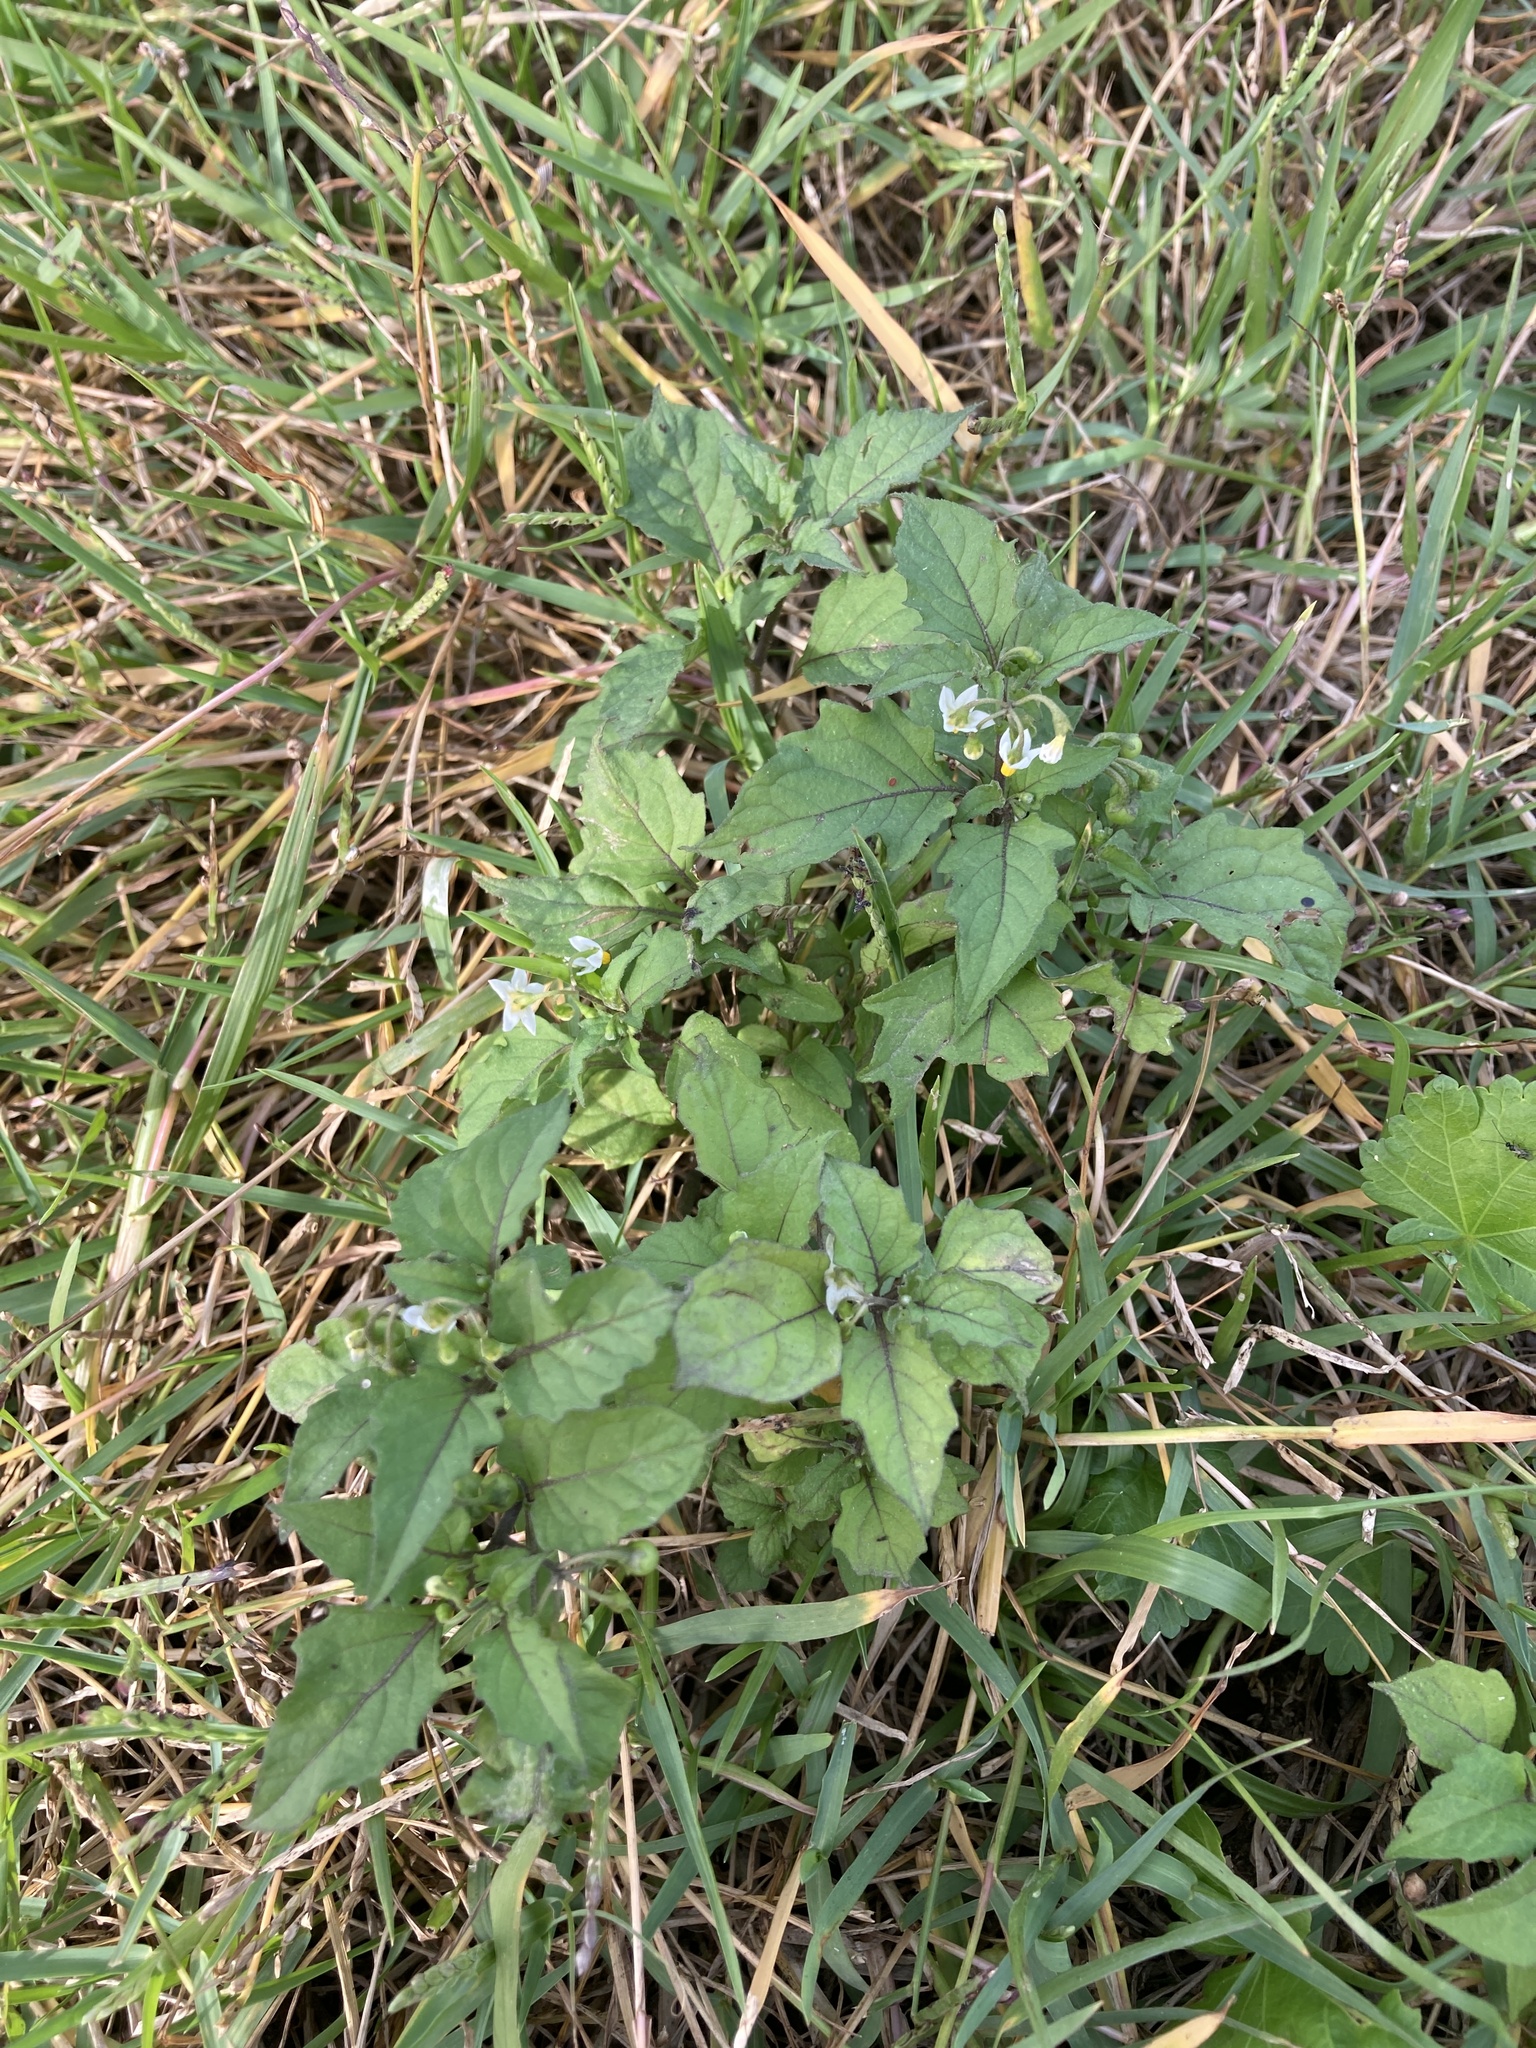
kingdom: Plantae
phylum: Tracheophyta
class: Magnoliopsida
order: Solanales
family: Solanaceae
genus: Solanum
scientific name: Solanum nigrum
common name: Black nightshade
